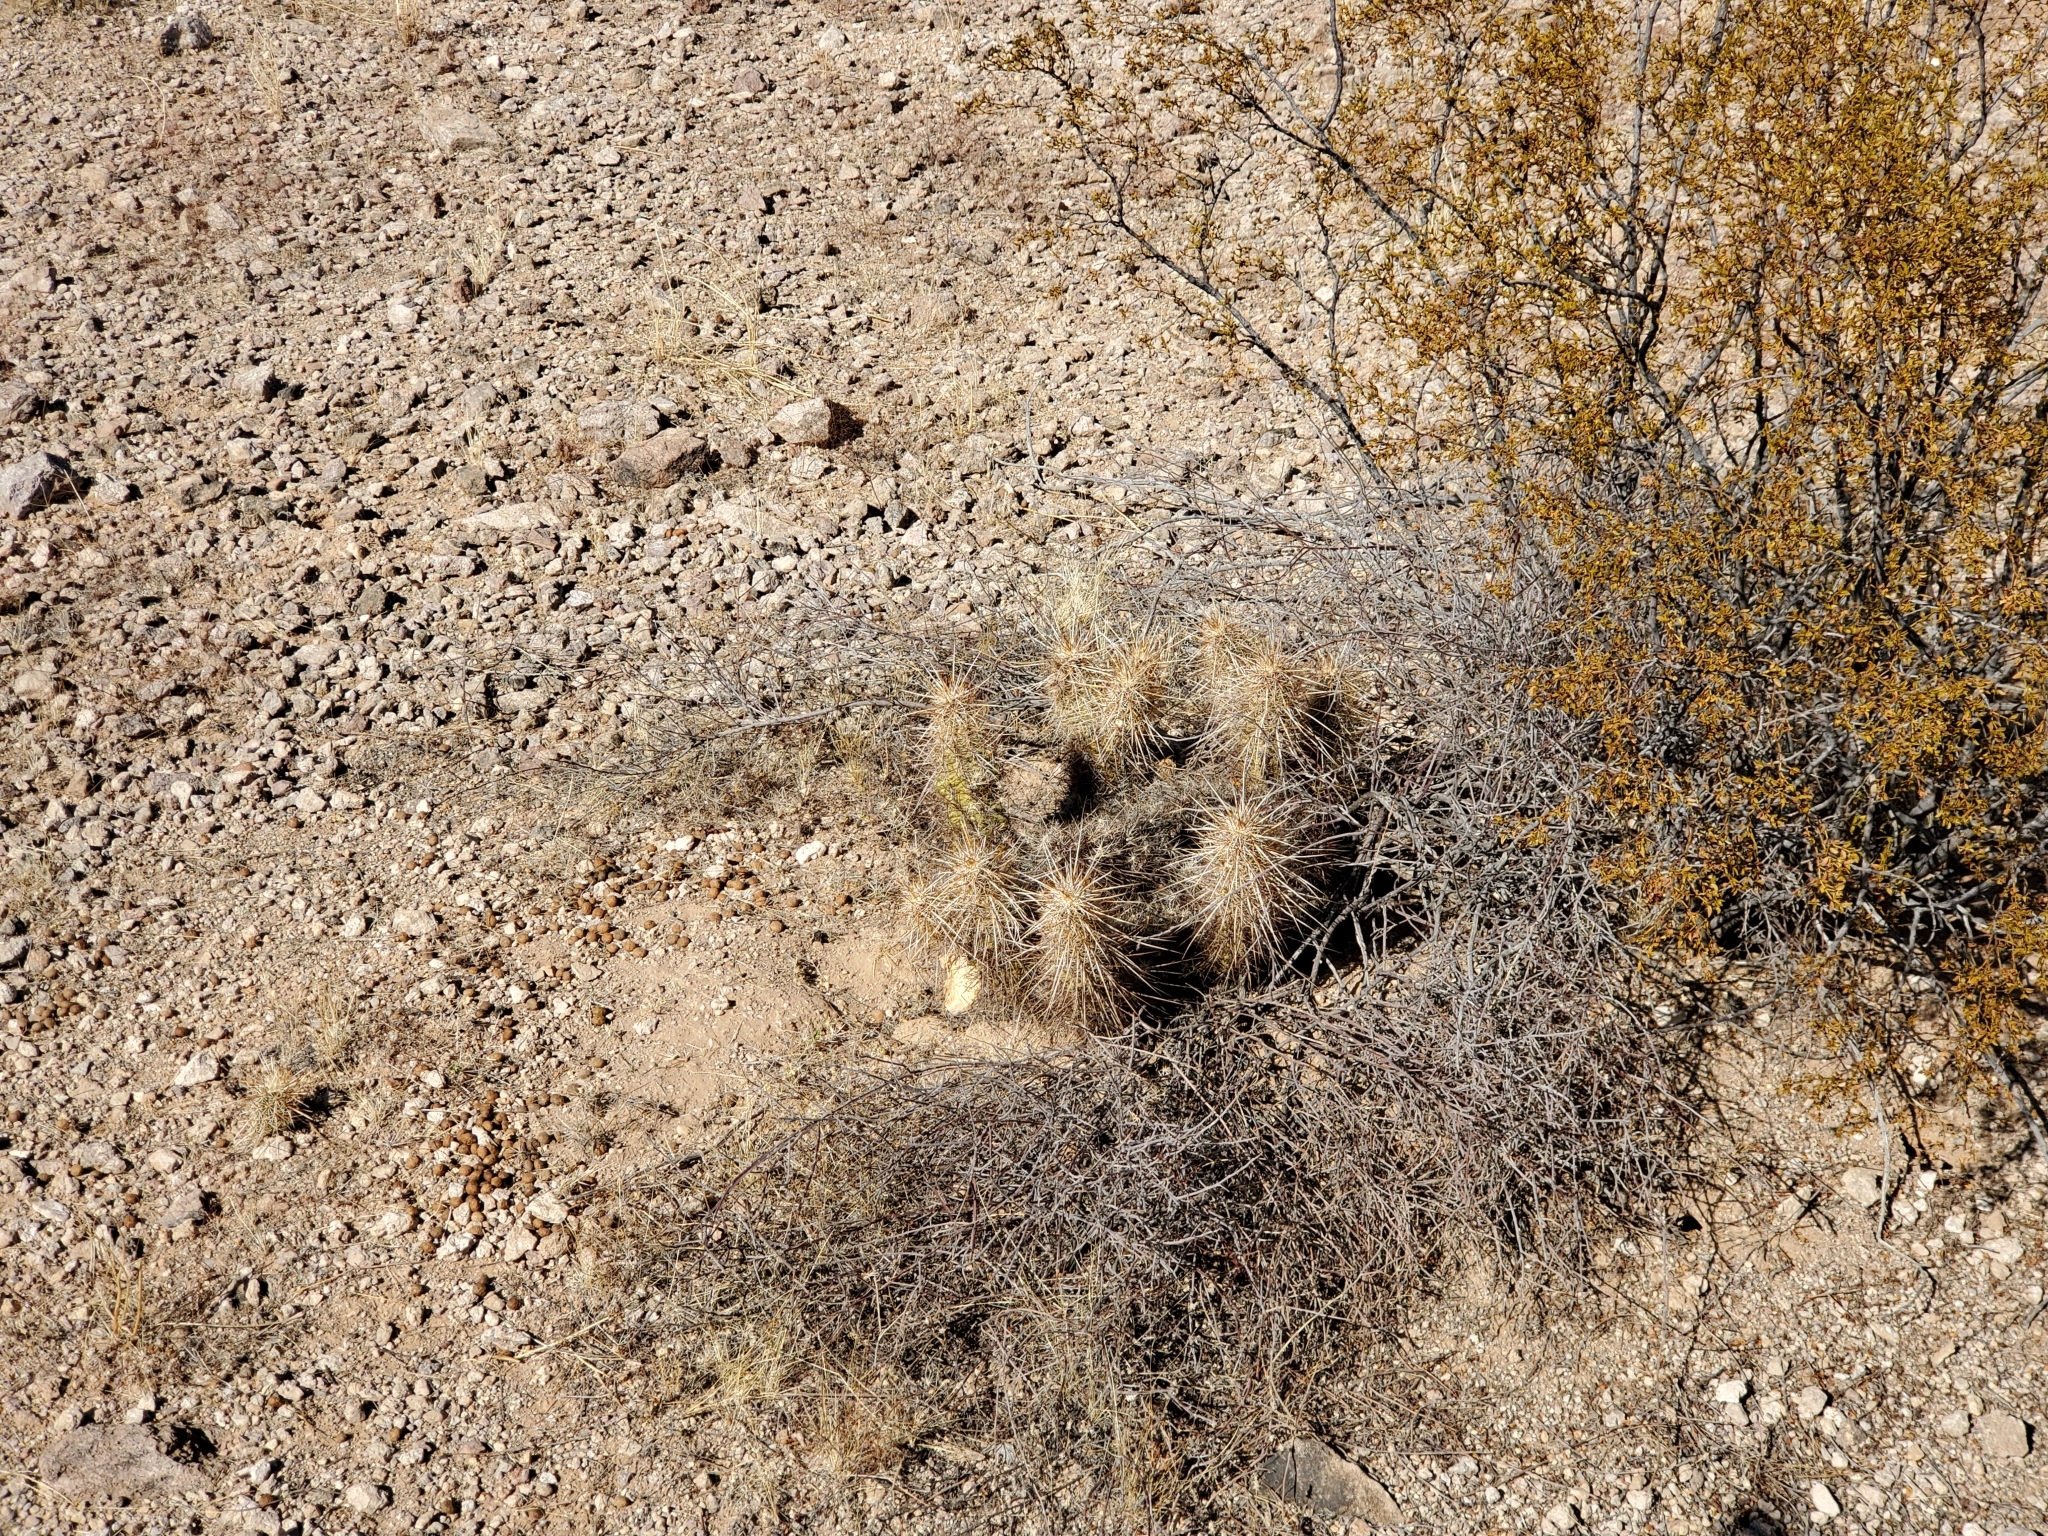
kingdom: Plantae
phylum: Tracheophyta
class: Magnoliopsida
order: Caryophyllales
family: Cactaceae
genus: Echinocereus
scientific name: Echinocereus engelmannii
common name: Engelmann's hedgehog cactus
